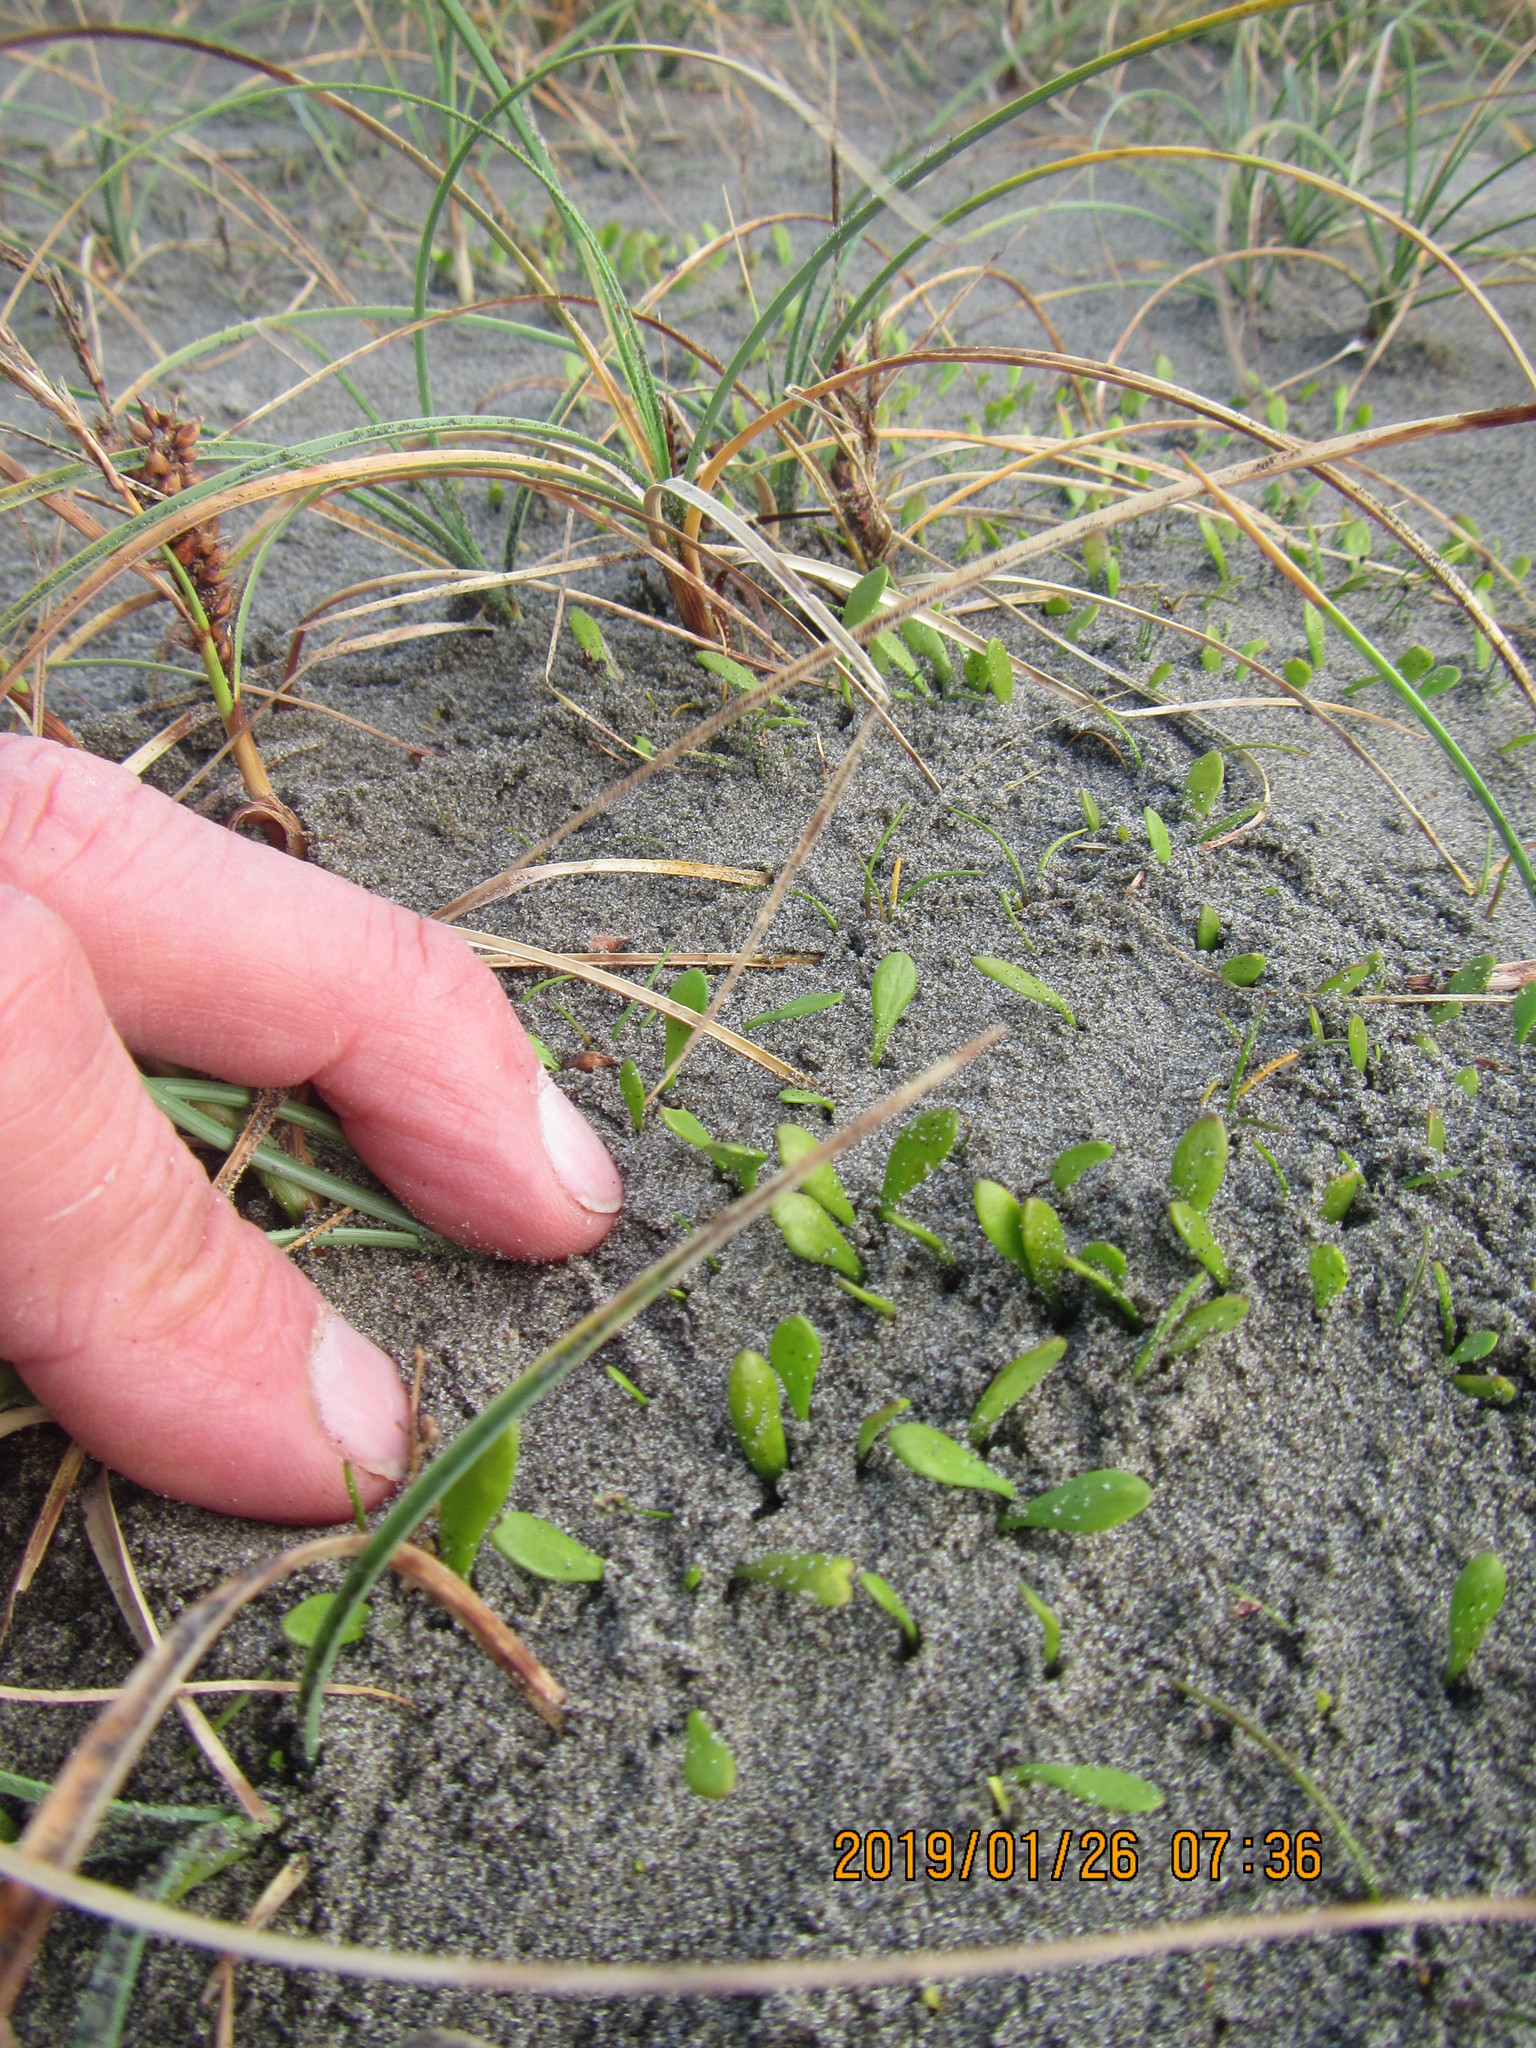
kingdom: Plantae
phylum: Tracheophyta
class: Magnoliopsida
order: Asterales
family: Goodeniaceae
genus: Goodenia
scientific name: Goodenia radicans
